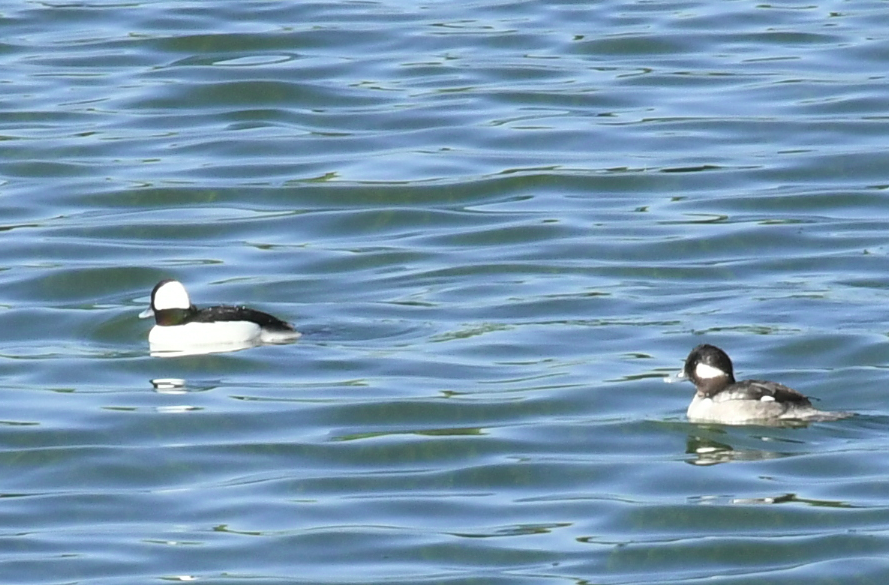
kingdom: Animalia
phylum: Chordata
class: Aves
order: Anseriformes
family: Anatidae
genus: Bucephala
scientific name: Bucephala albeola
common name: Bufflehead
